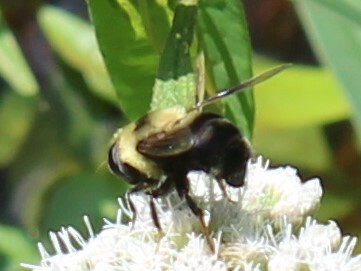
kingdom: Animalia
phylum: Arthropoda
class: Insecta
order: Diptera
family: Syrphidae
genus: Eristalis
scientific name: Eristalis flavipes
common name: Orange-legged drone fly
